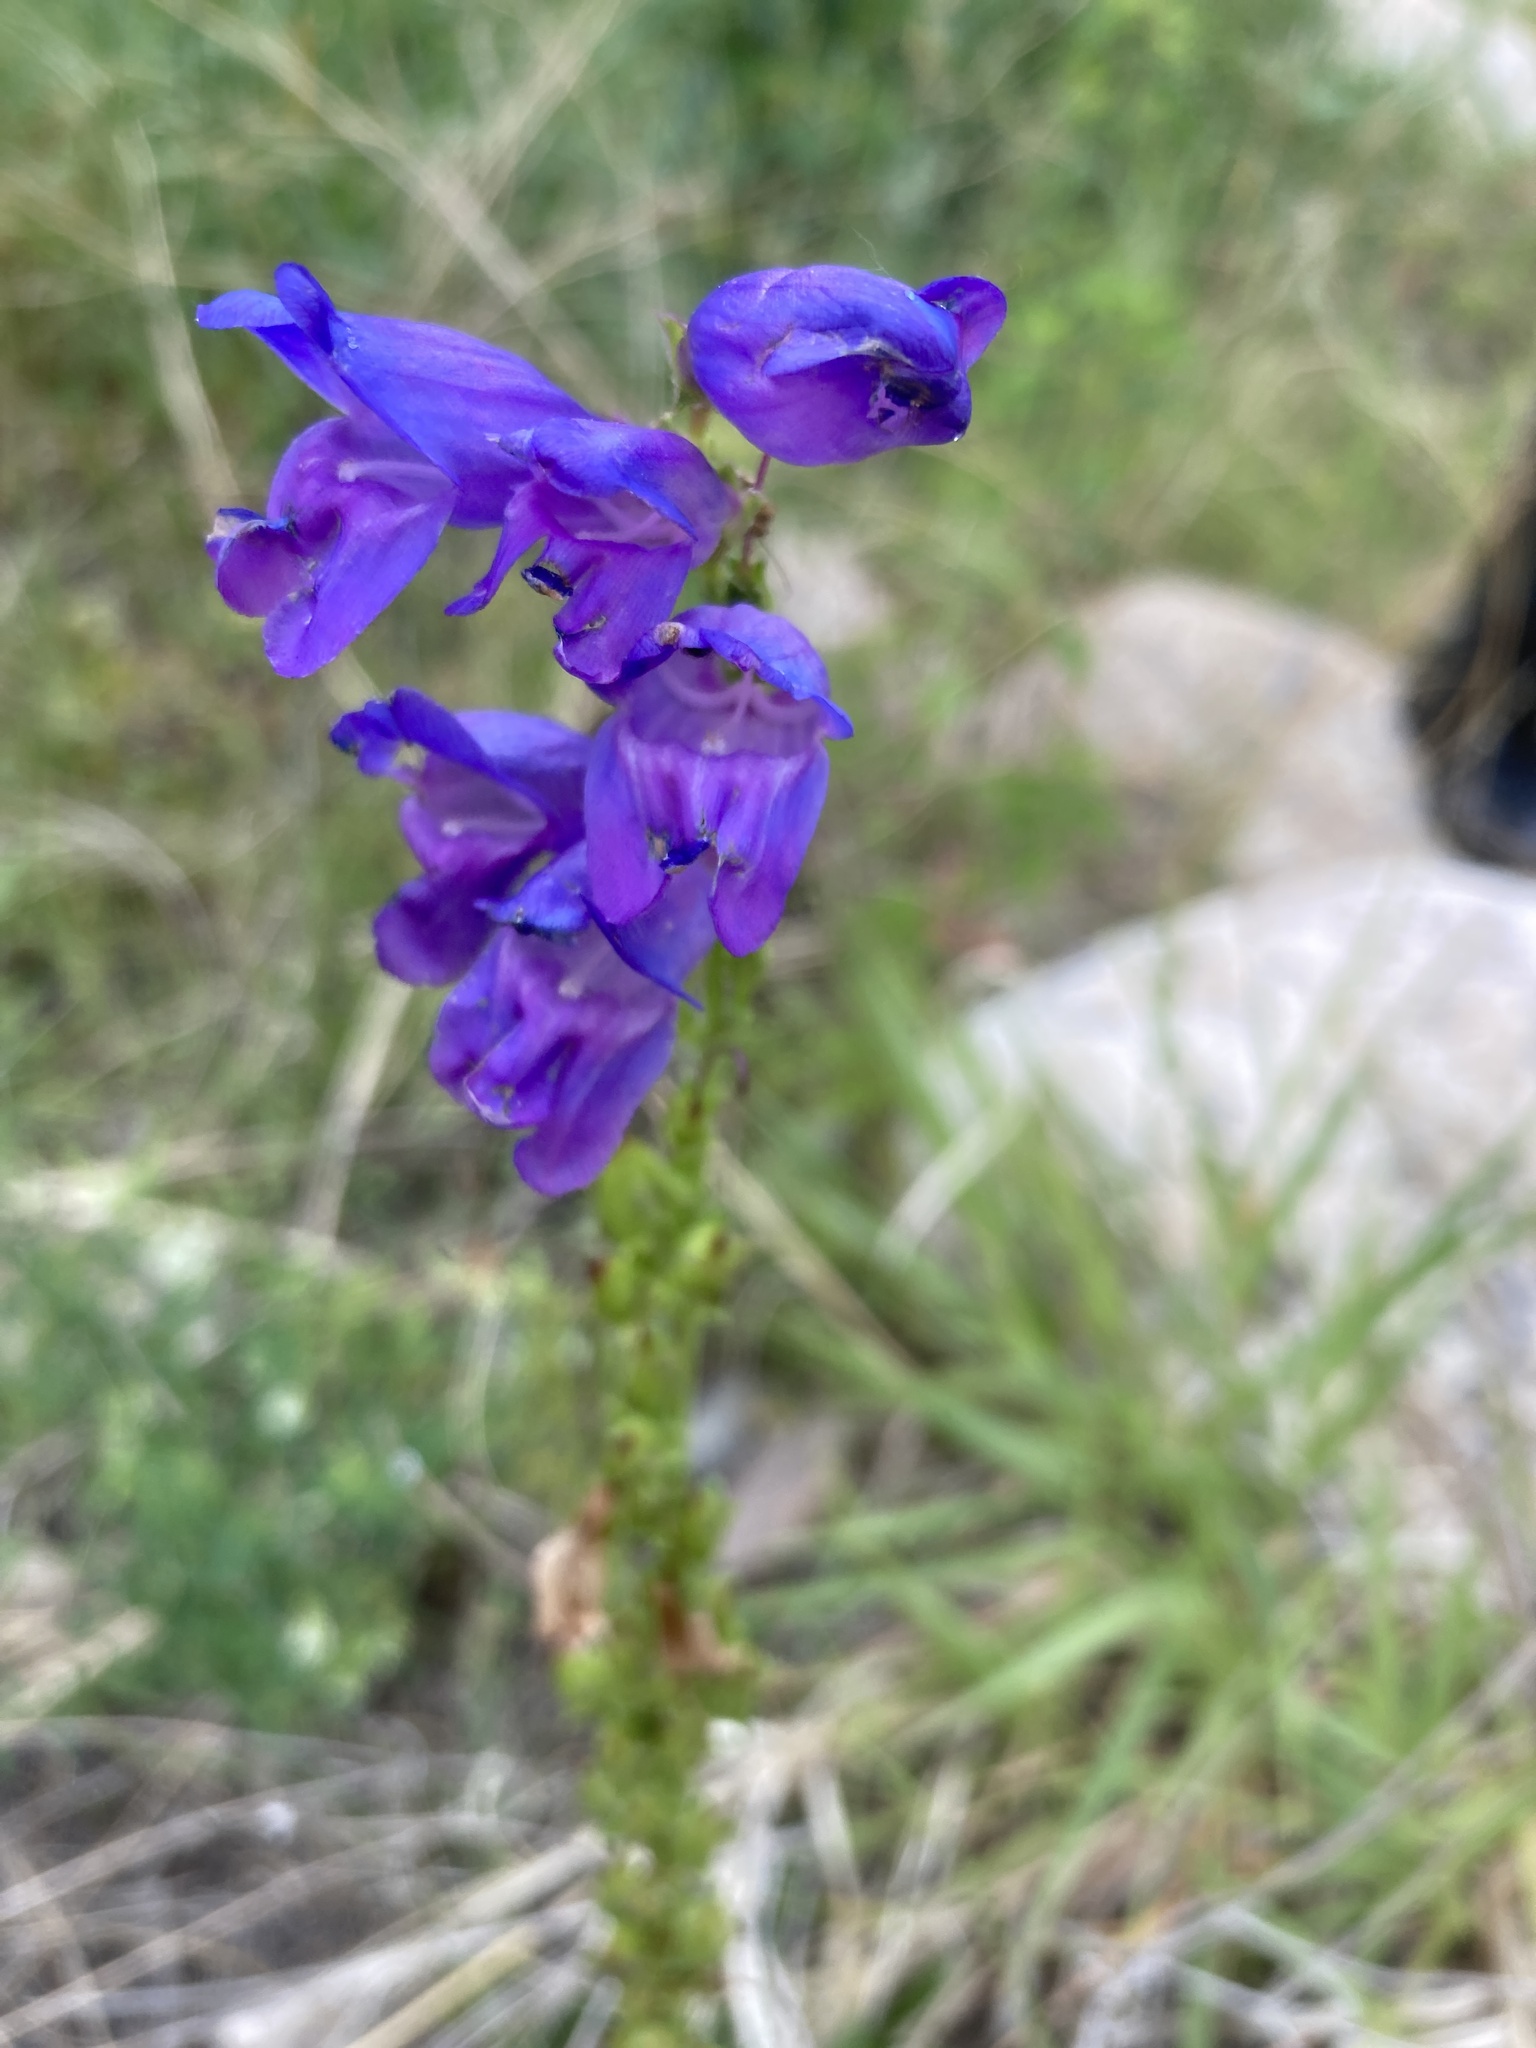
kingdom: Plantae
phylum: Tracheophyta
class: Magnoliopsida
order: Lamiales
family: Plantaginaceae
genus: Penstemon
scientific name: Penstemon strictus
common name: Rocky mountain penstemon
